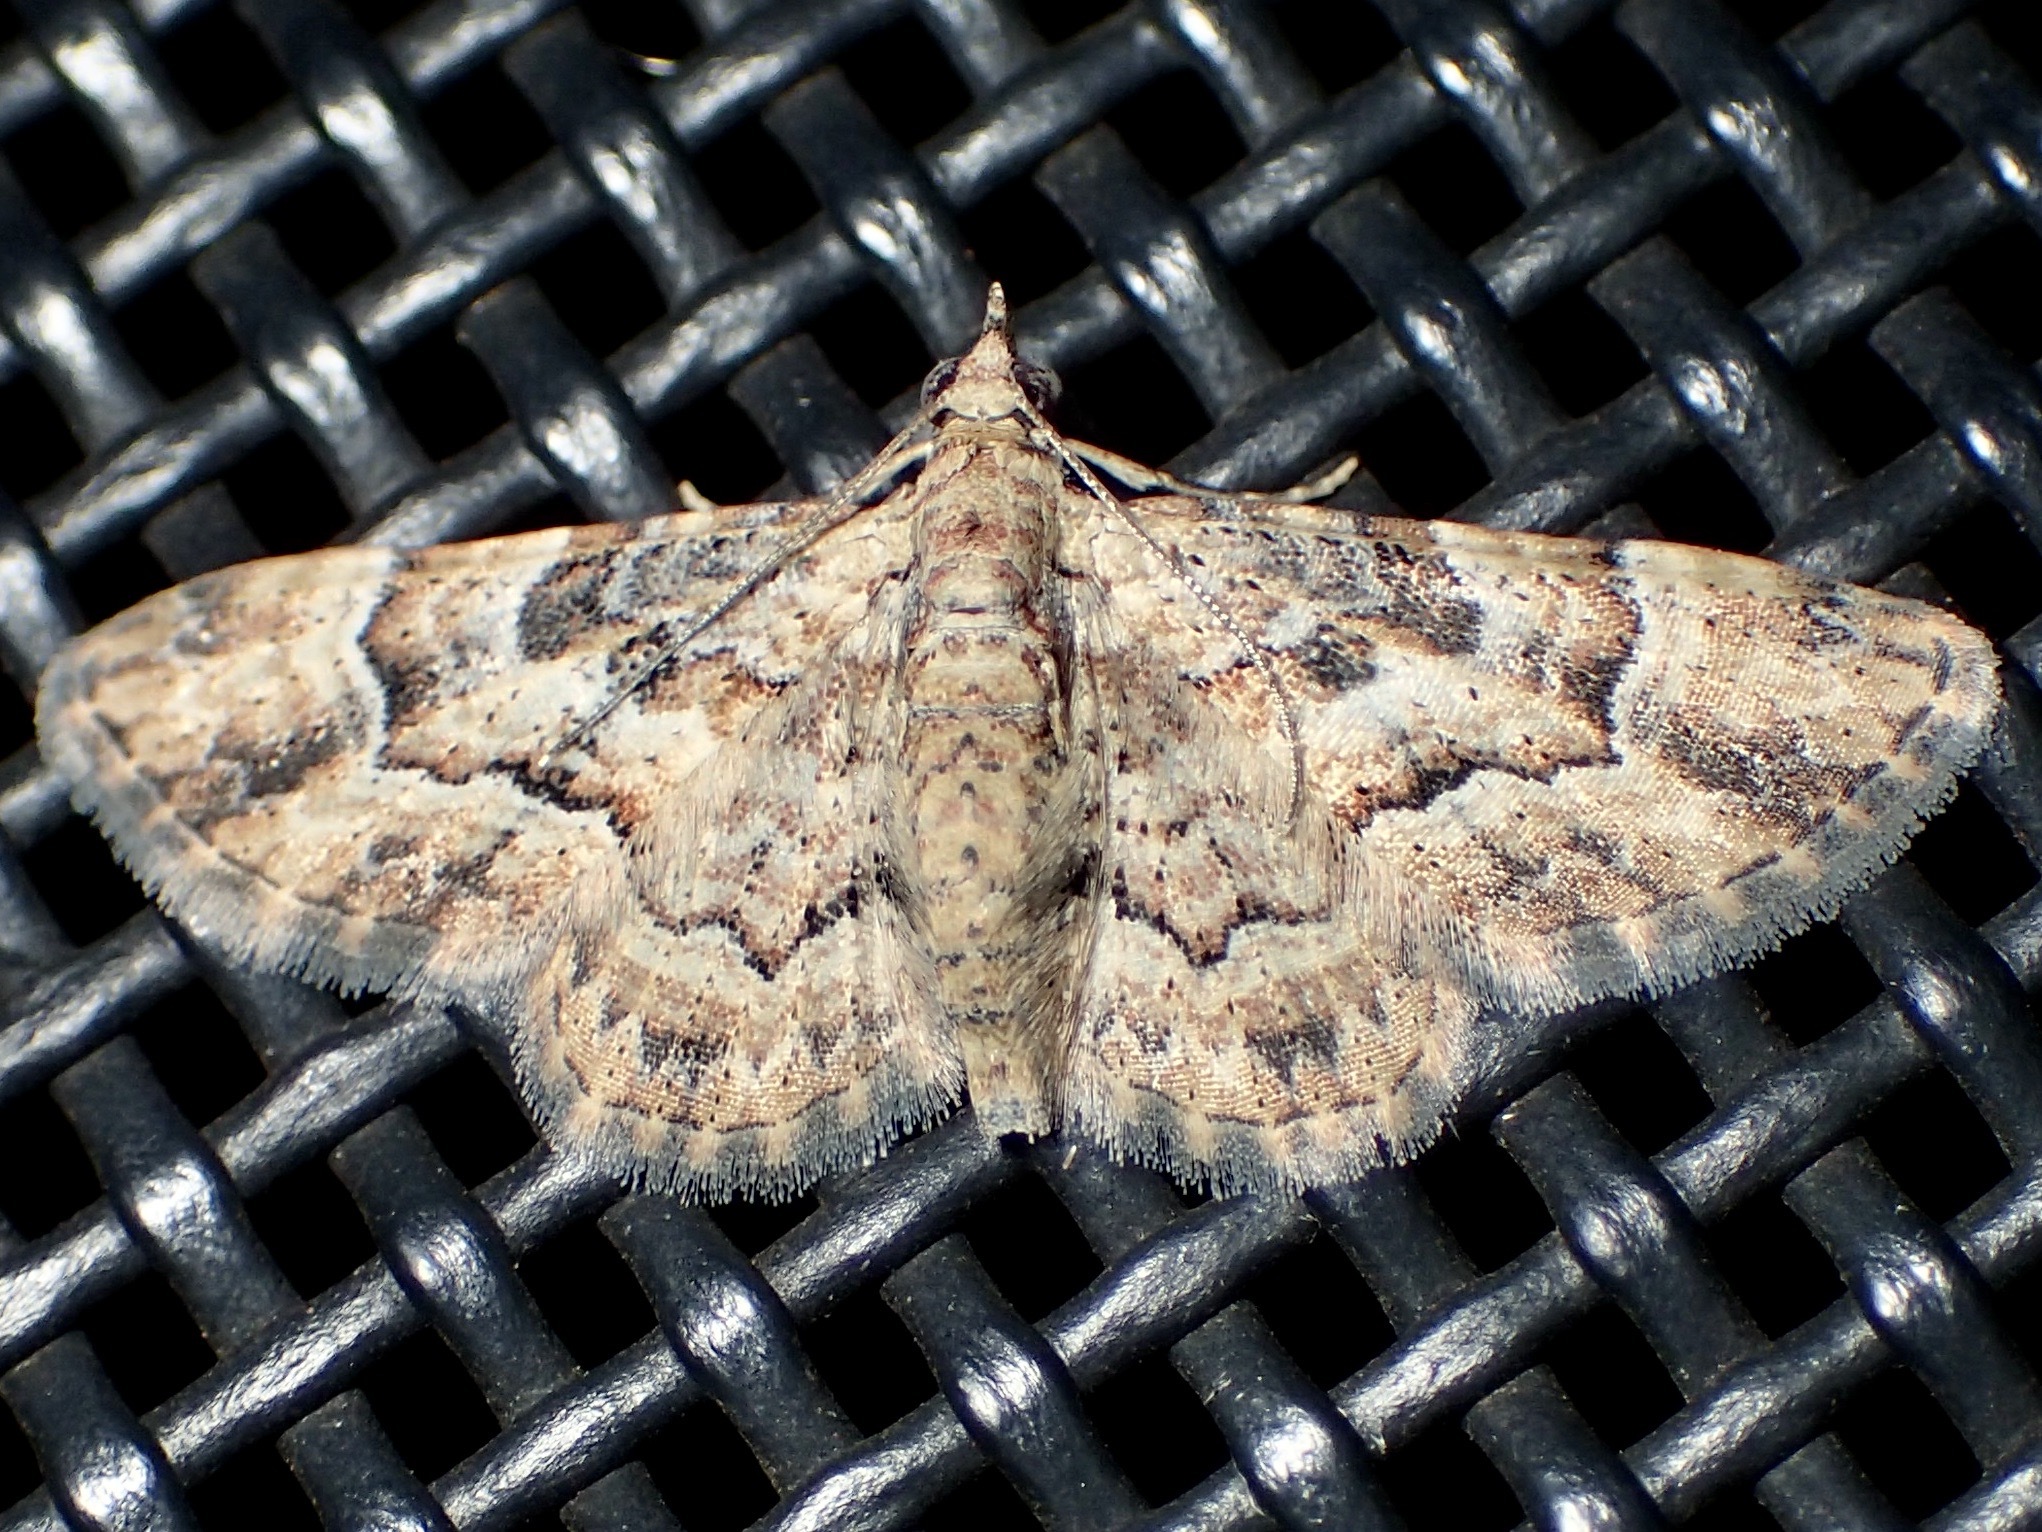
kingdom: Animalia
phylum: Arthropoda
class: Insecta
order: Lepidoptera
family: Geometridae
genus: Gymnoscelis
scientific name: Gymnoscelis lophopus
